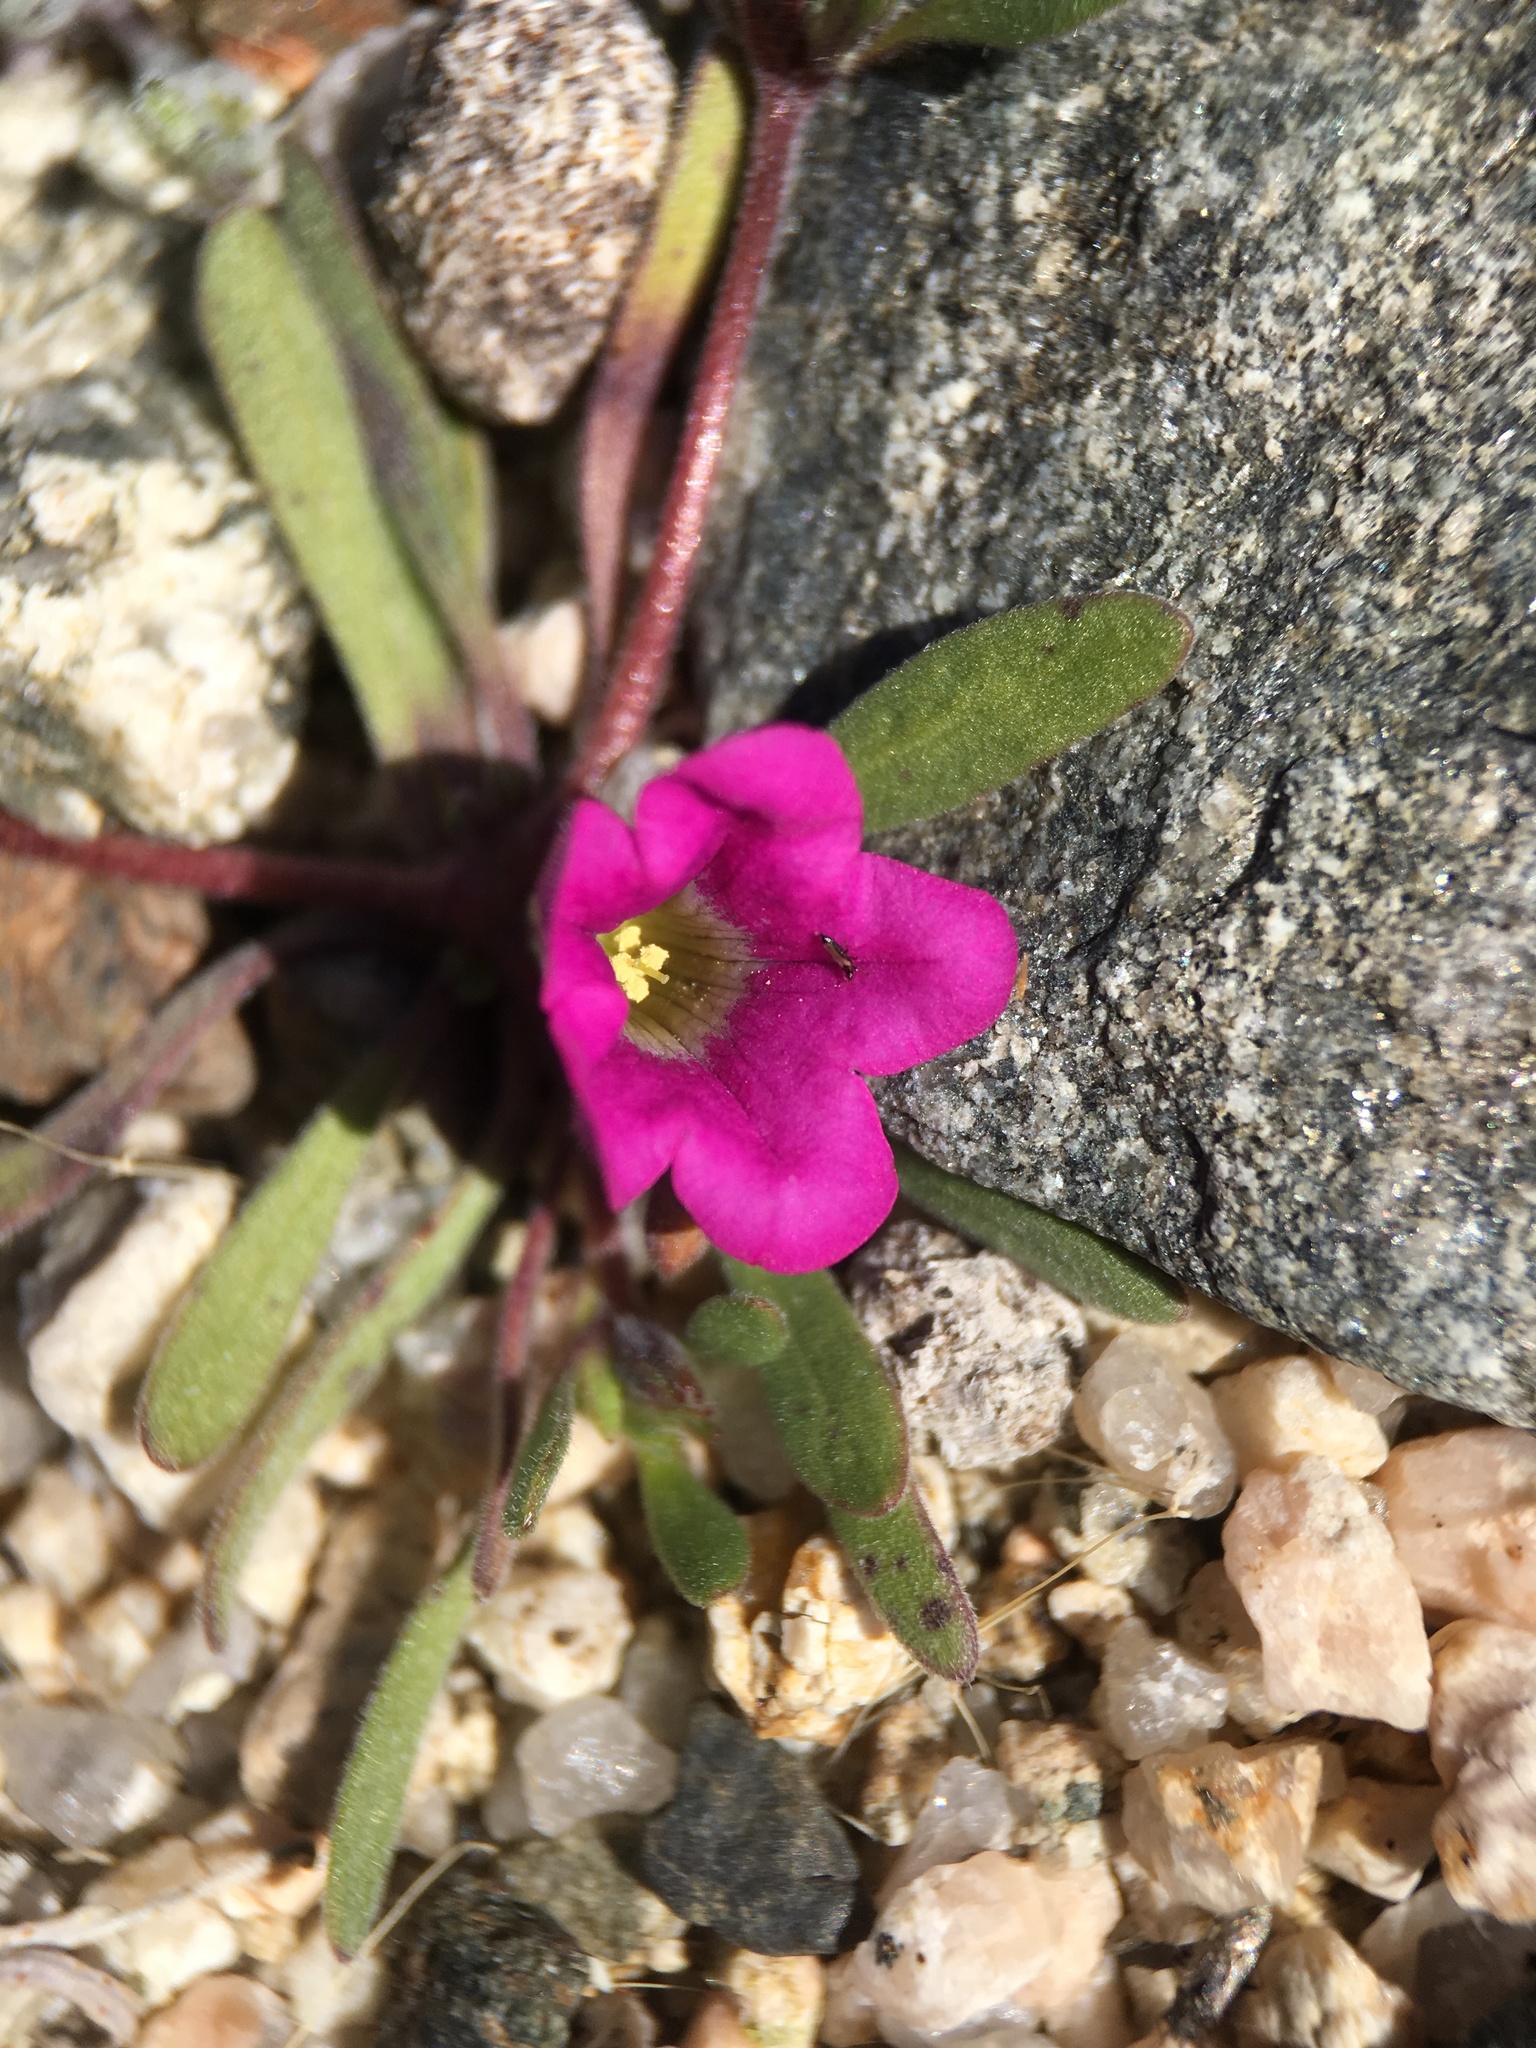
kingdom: Plantae
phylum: Tracheophyta
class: Magnoliopsida
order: Boraginales
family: Namaceae
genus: Nama
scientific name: Nama demissa
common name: Leafy nama
